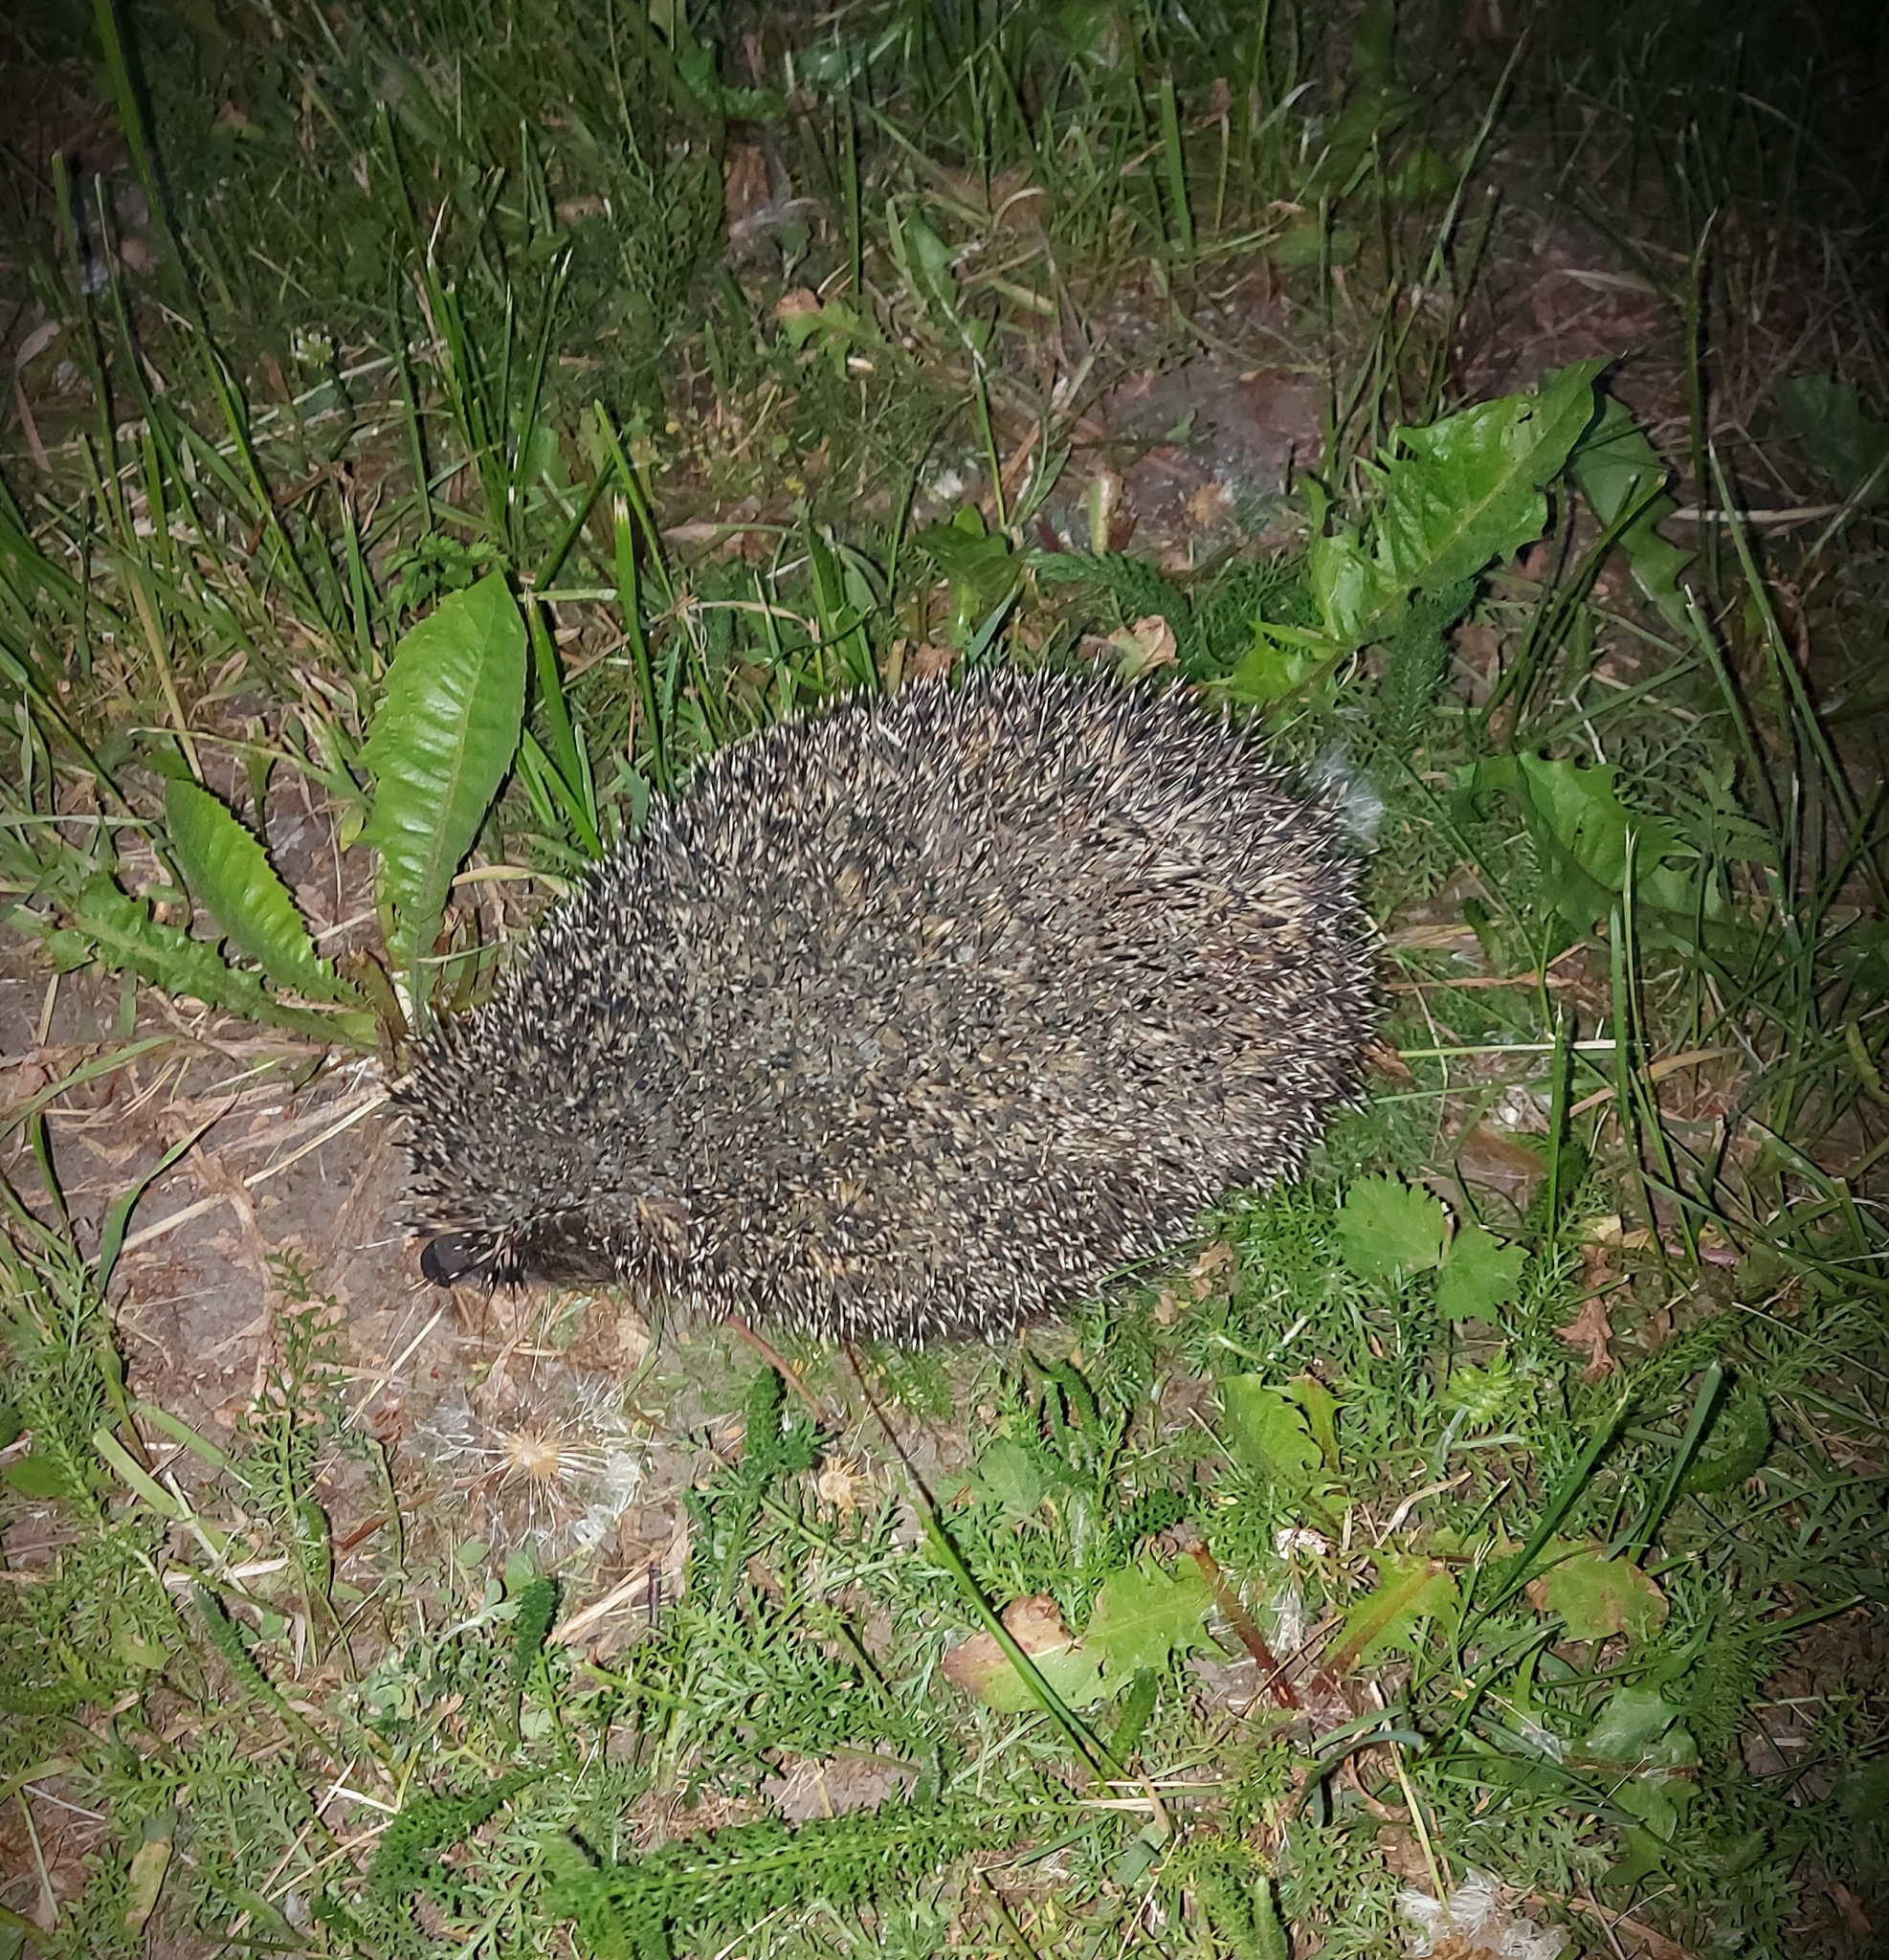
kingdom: Animalia
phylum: Chordata
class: Mammalia
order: Erinaceomorpha
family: Erinaceidae
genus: Erinaceus
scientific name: Erinaceus roumanicus
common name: Northern white-breasted hedgehog
